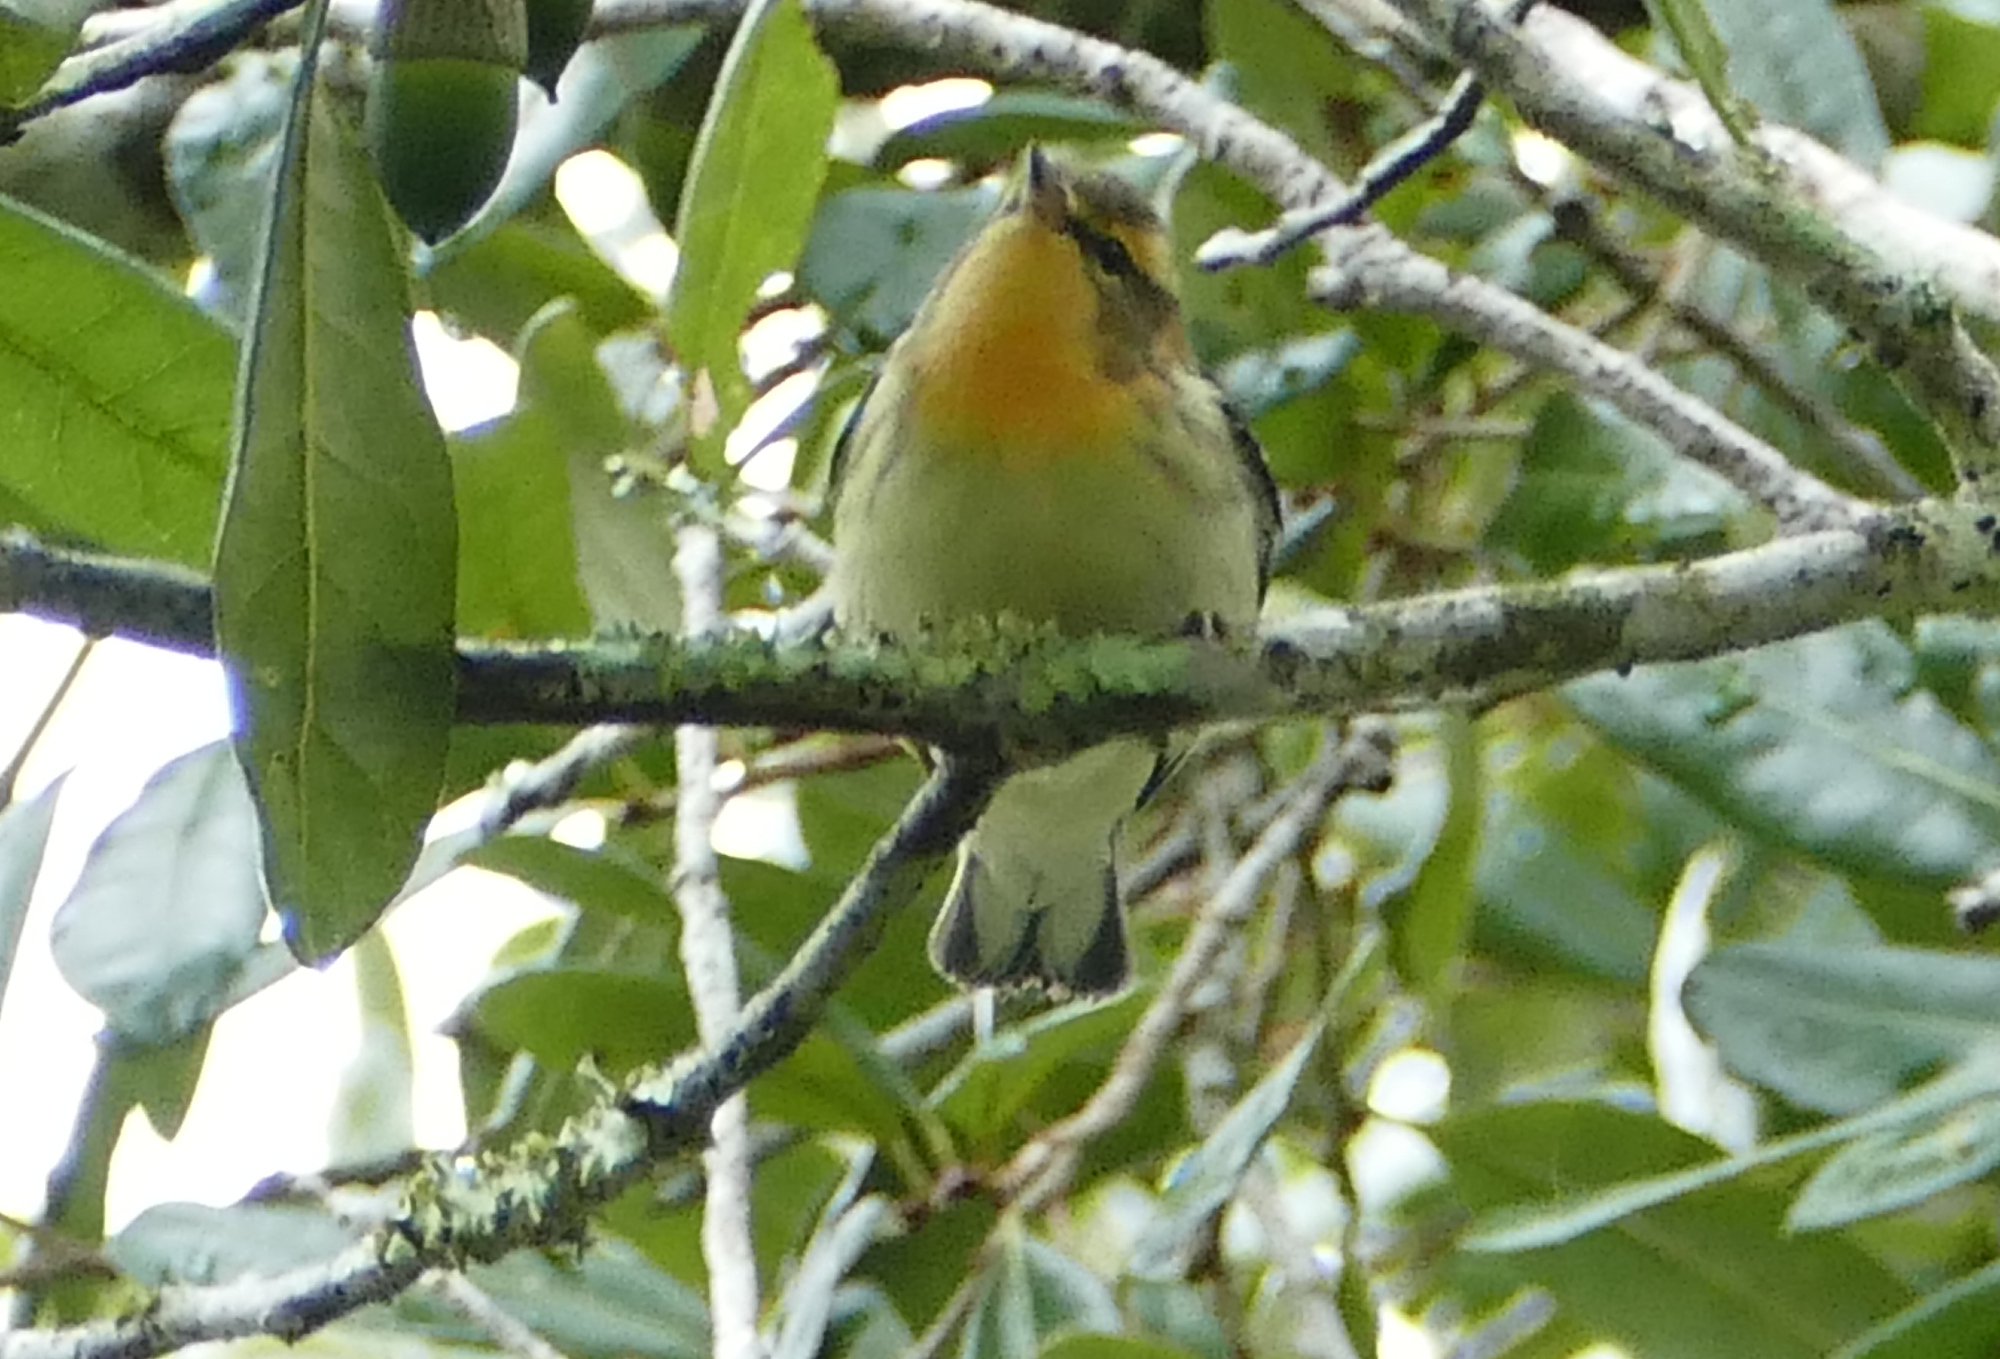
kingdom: Animalia
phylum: Chordata
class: Aves
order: Passeriformes
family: Parulidae
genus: Setophaga
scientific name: Setophaga fusca
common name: Blackburnian warbler
